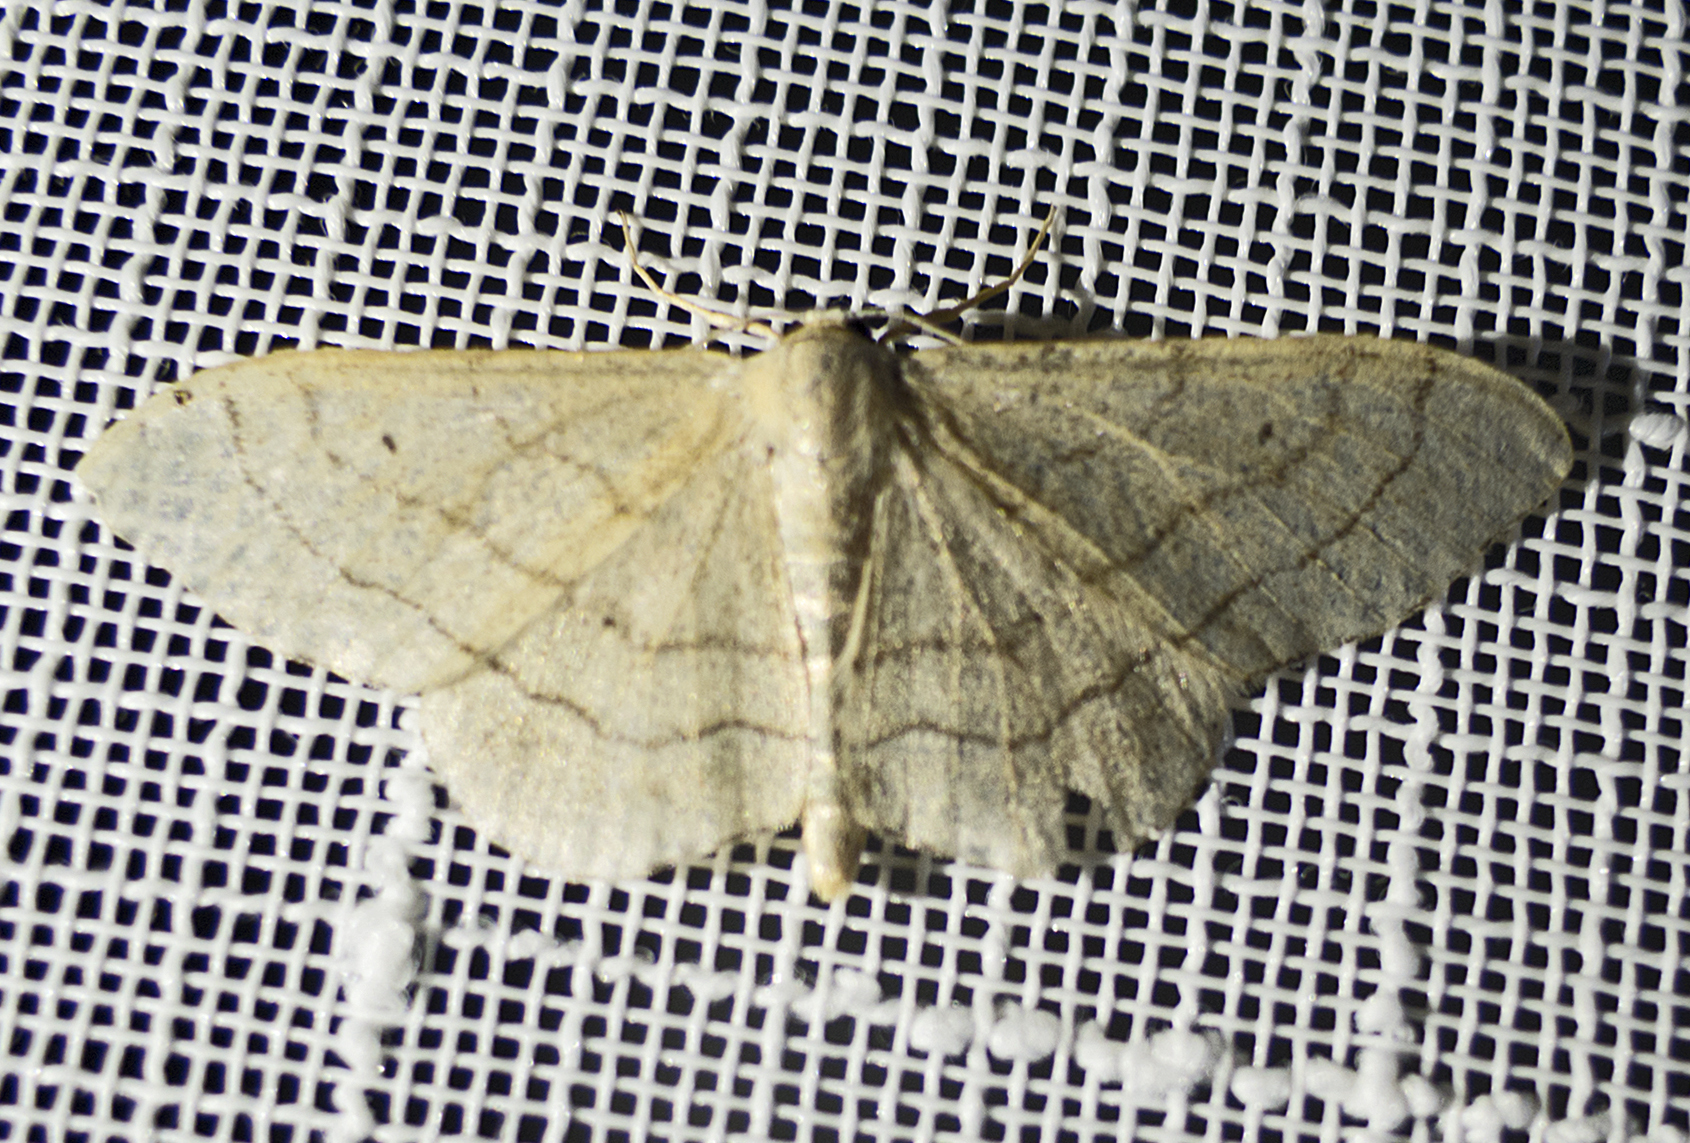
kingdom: Animalia
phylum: Arthropoda
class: Insecta
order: Lepidoptera
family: Geometridae
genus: Idaea
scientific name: Idaea aversata
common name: Riband wave
